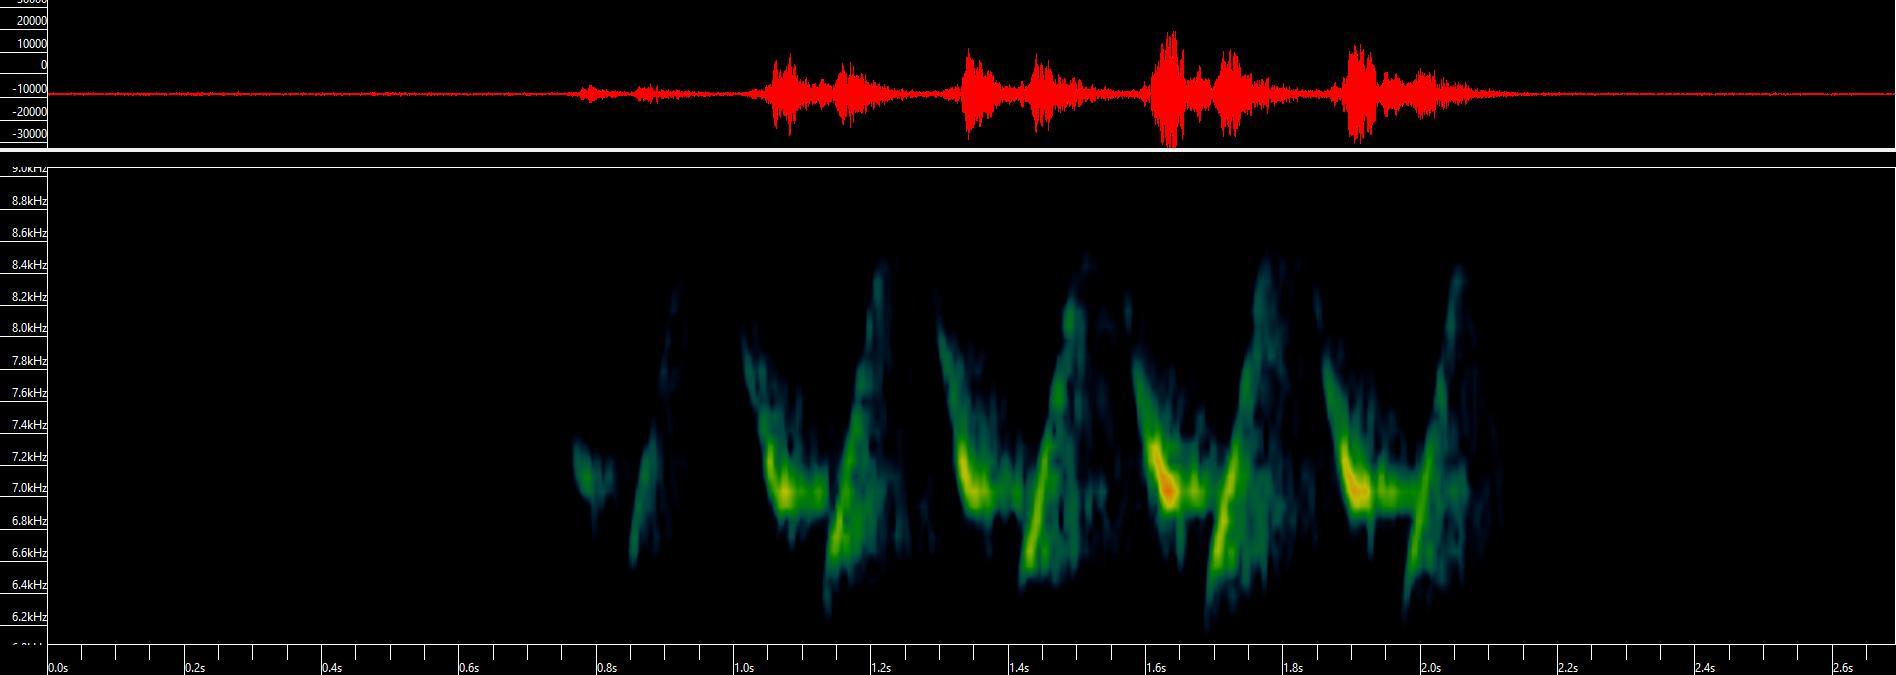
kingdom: Animalia
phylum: Chordata
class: Aves
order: Passeriformes
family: Parulidae
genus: Mniotilta
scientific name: Mniotilta varia
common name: Black-and-white warbler
